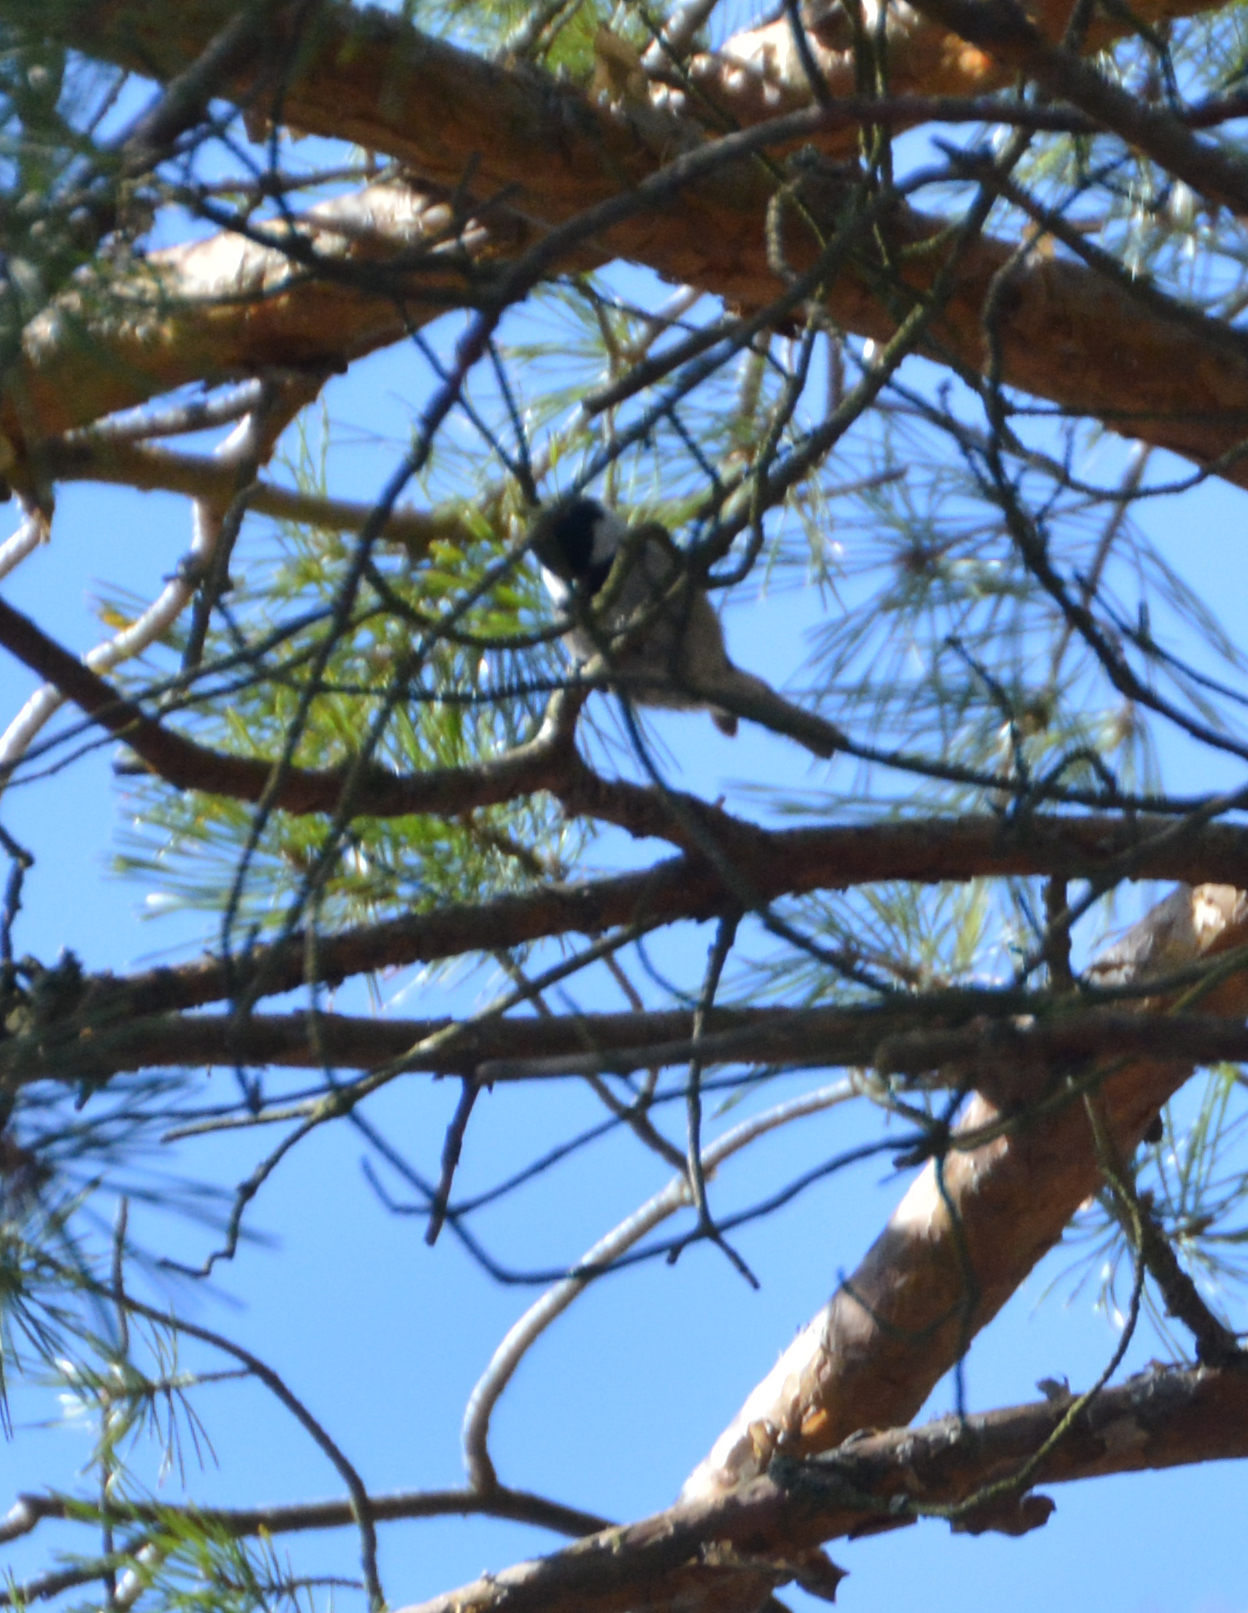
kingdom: Animalia
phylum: Chordata
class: Aves
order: Passeriformes
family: Paridae
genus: Periparus
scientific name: Periparus ater
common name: Coal tit
